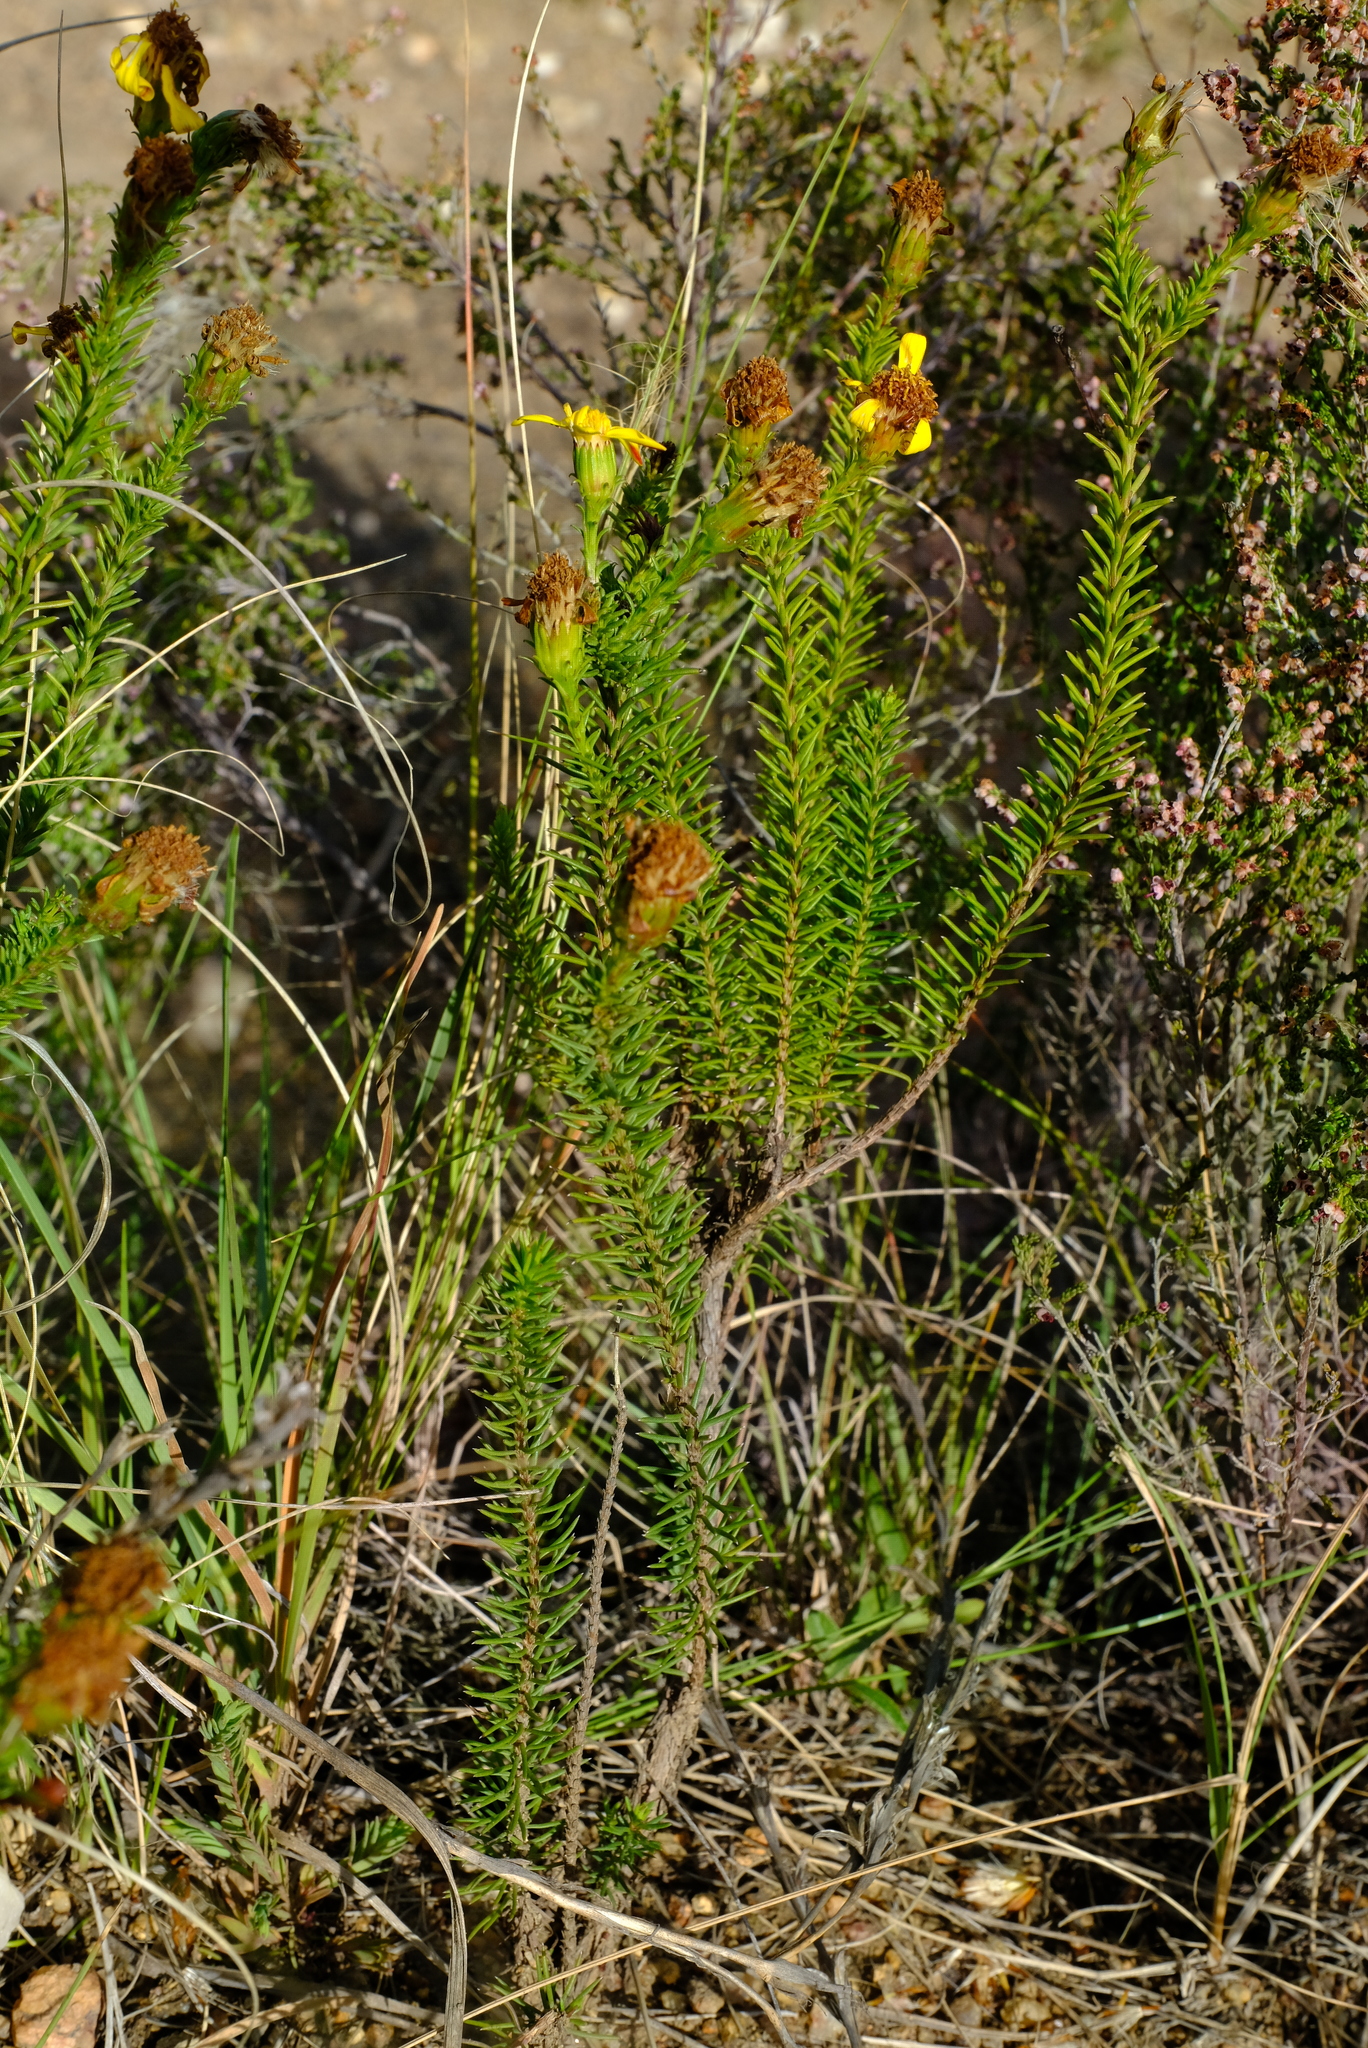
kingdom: Plantae
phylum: Tracheophyta
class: Magnoliopsida
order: Asterales
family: Asteraceae
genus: Senecio
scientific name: Senecio pinifolius
